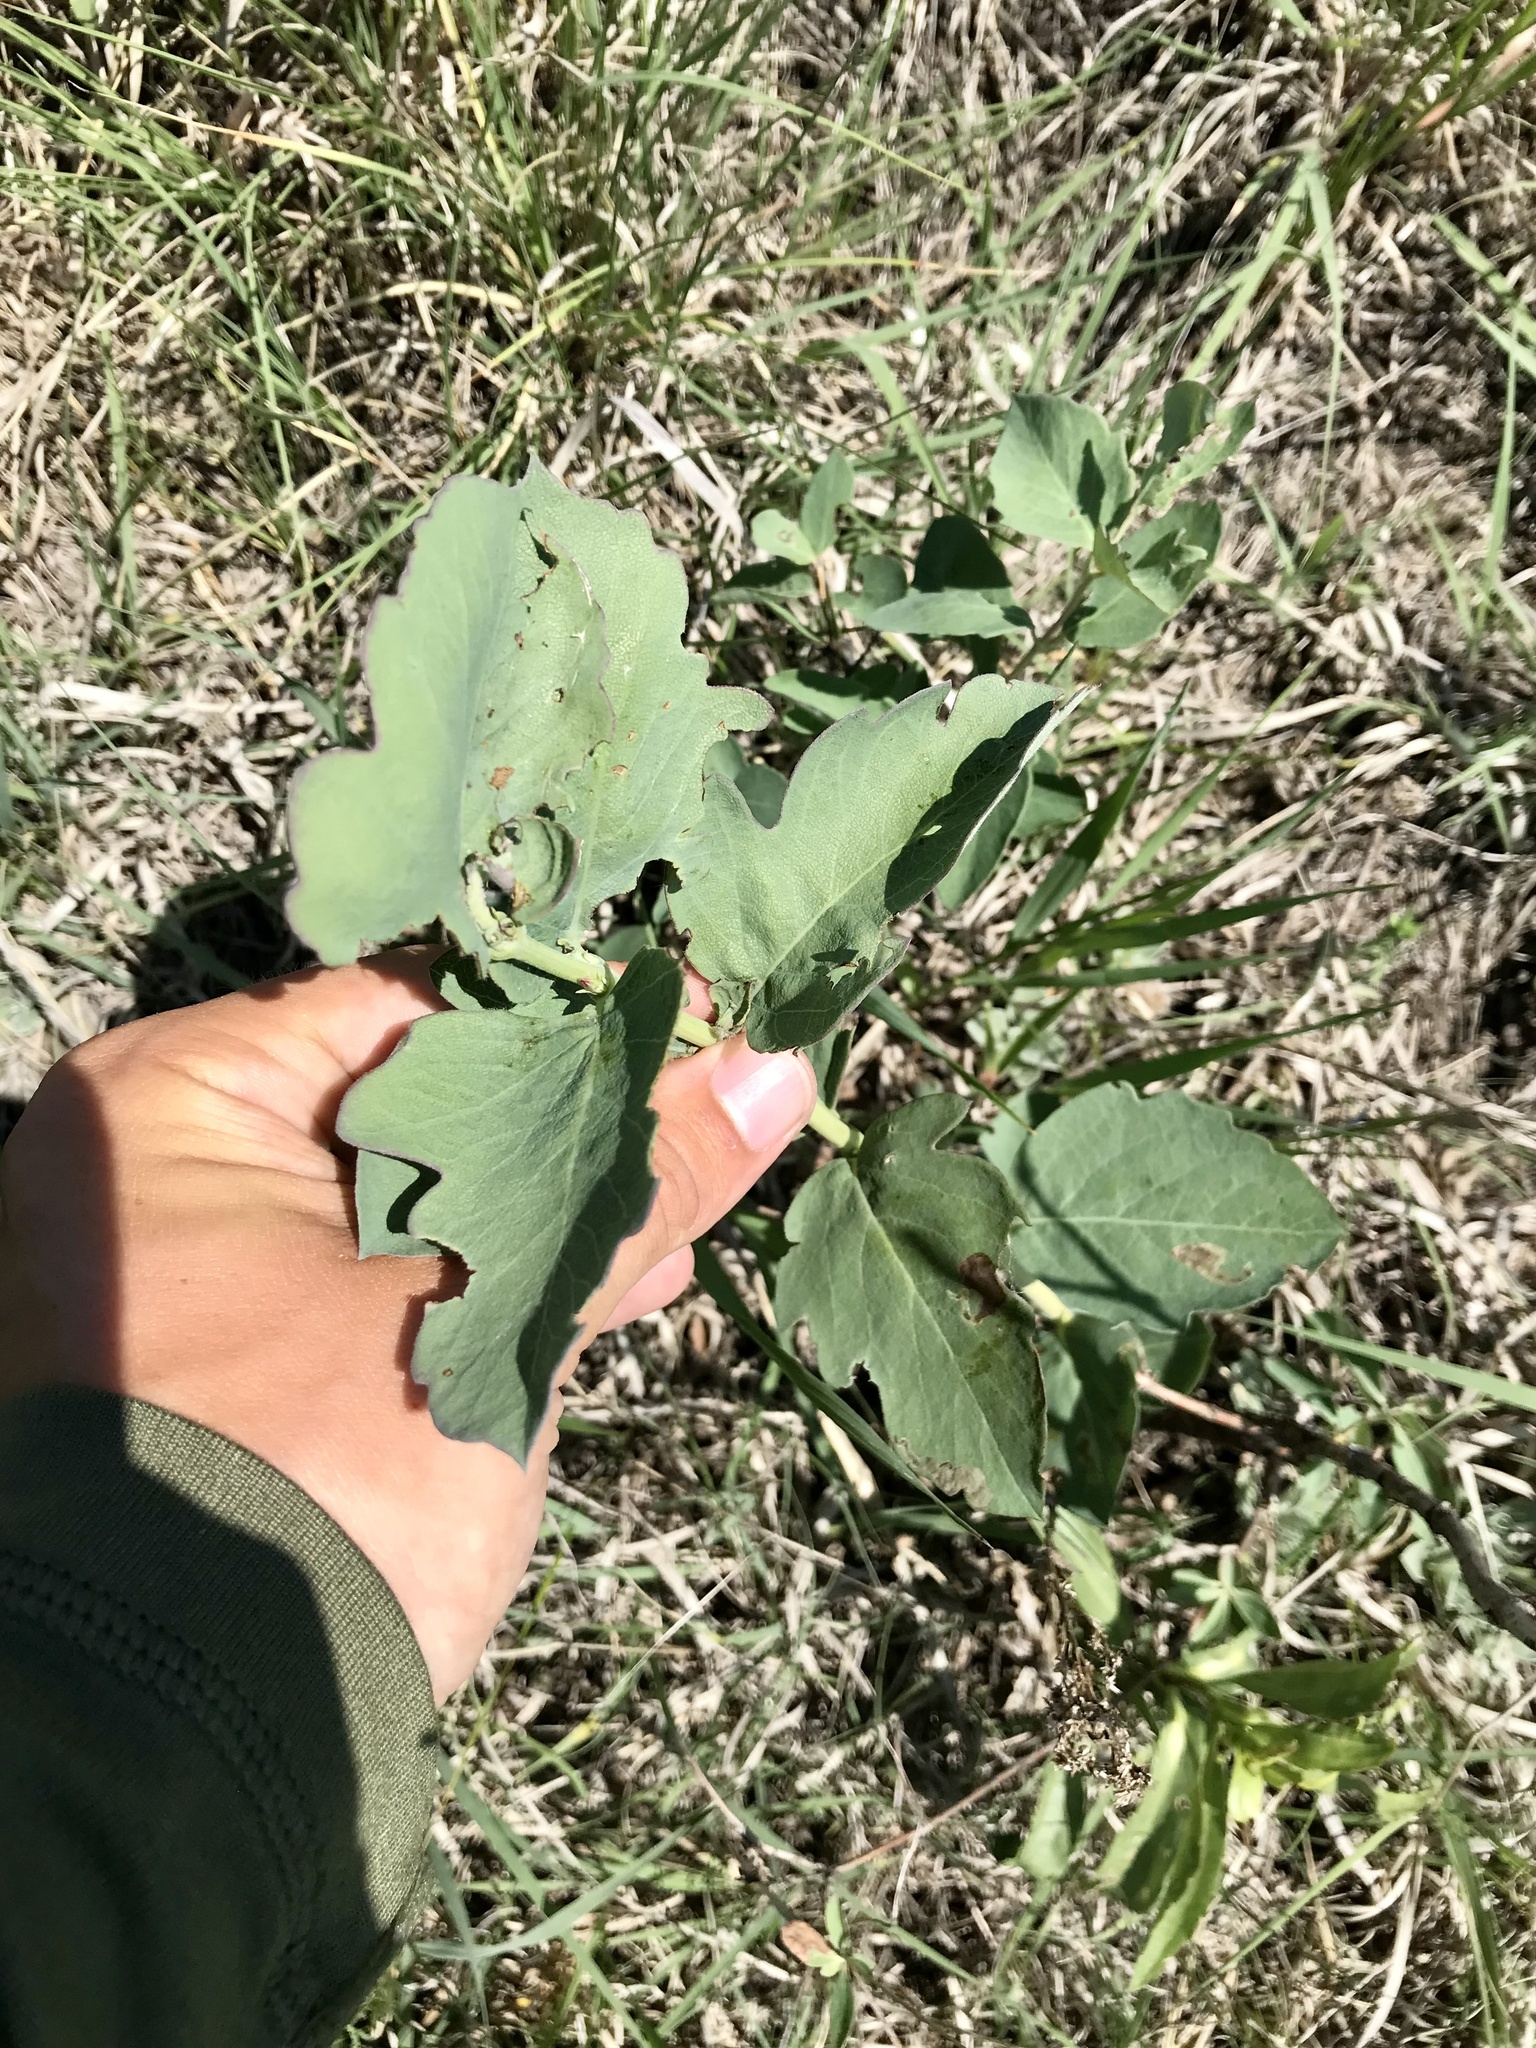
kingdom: Plantae
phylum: Tracheophyta
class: Magnoliopsida
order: Dipsacales
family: Caprifoliaceae
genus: Symphoricarpos
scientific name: Symphoricarpos occidentalis
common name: Wolfberry
